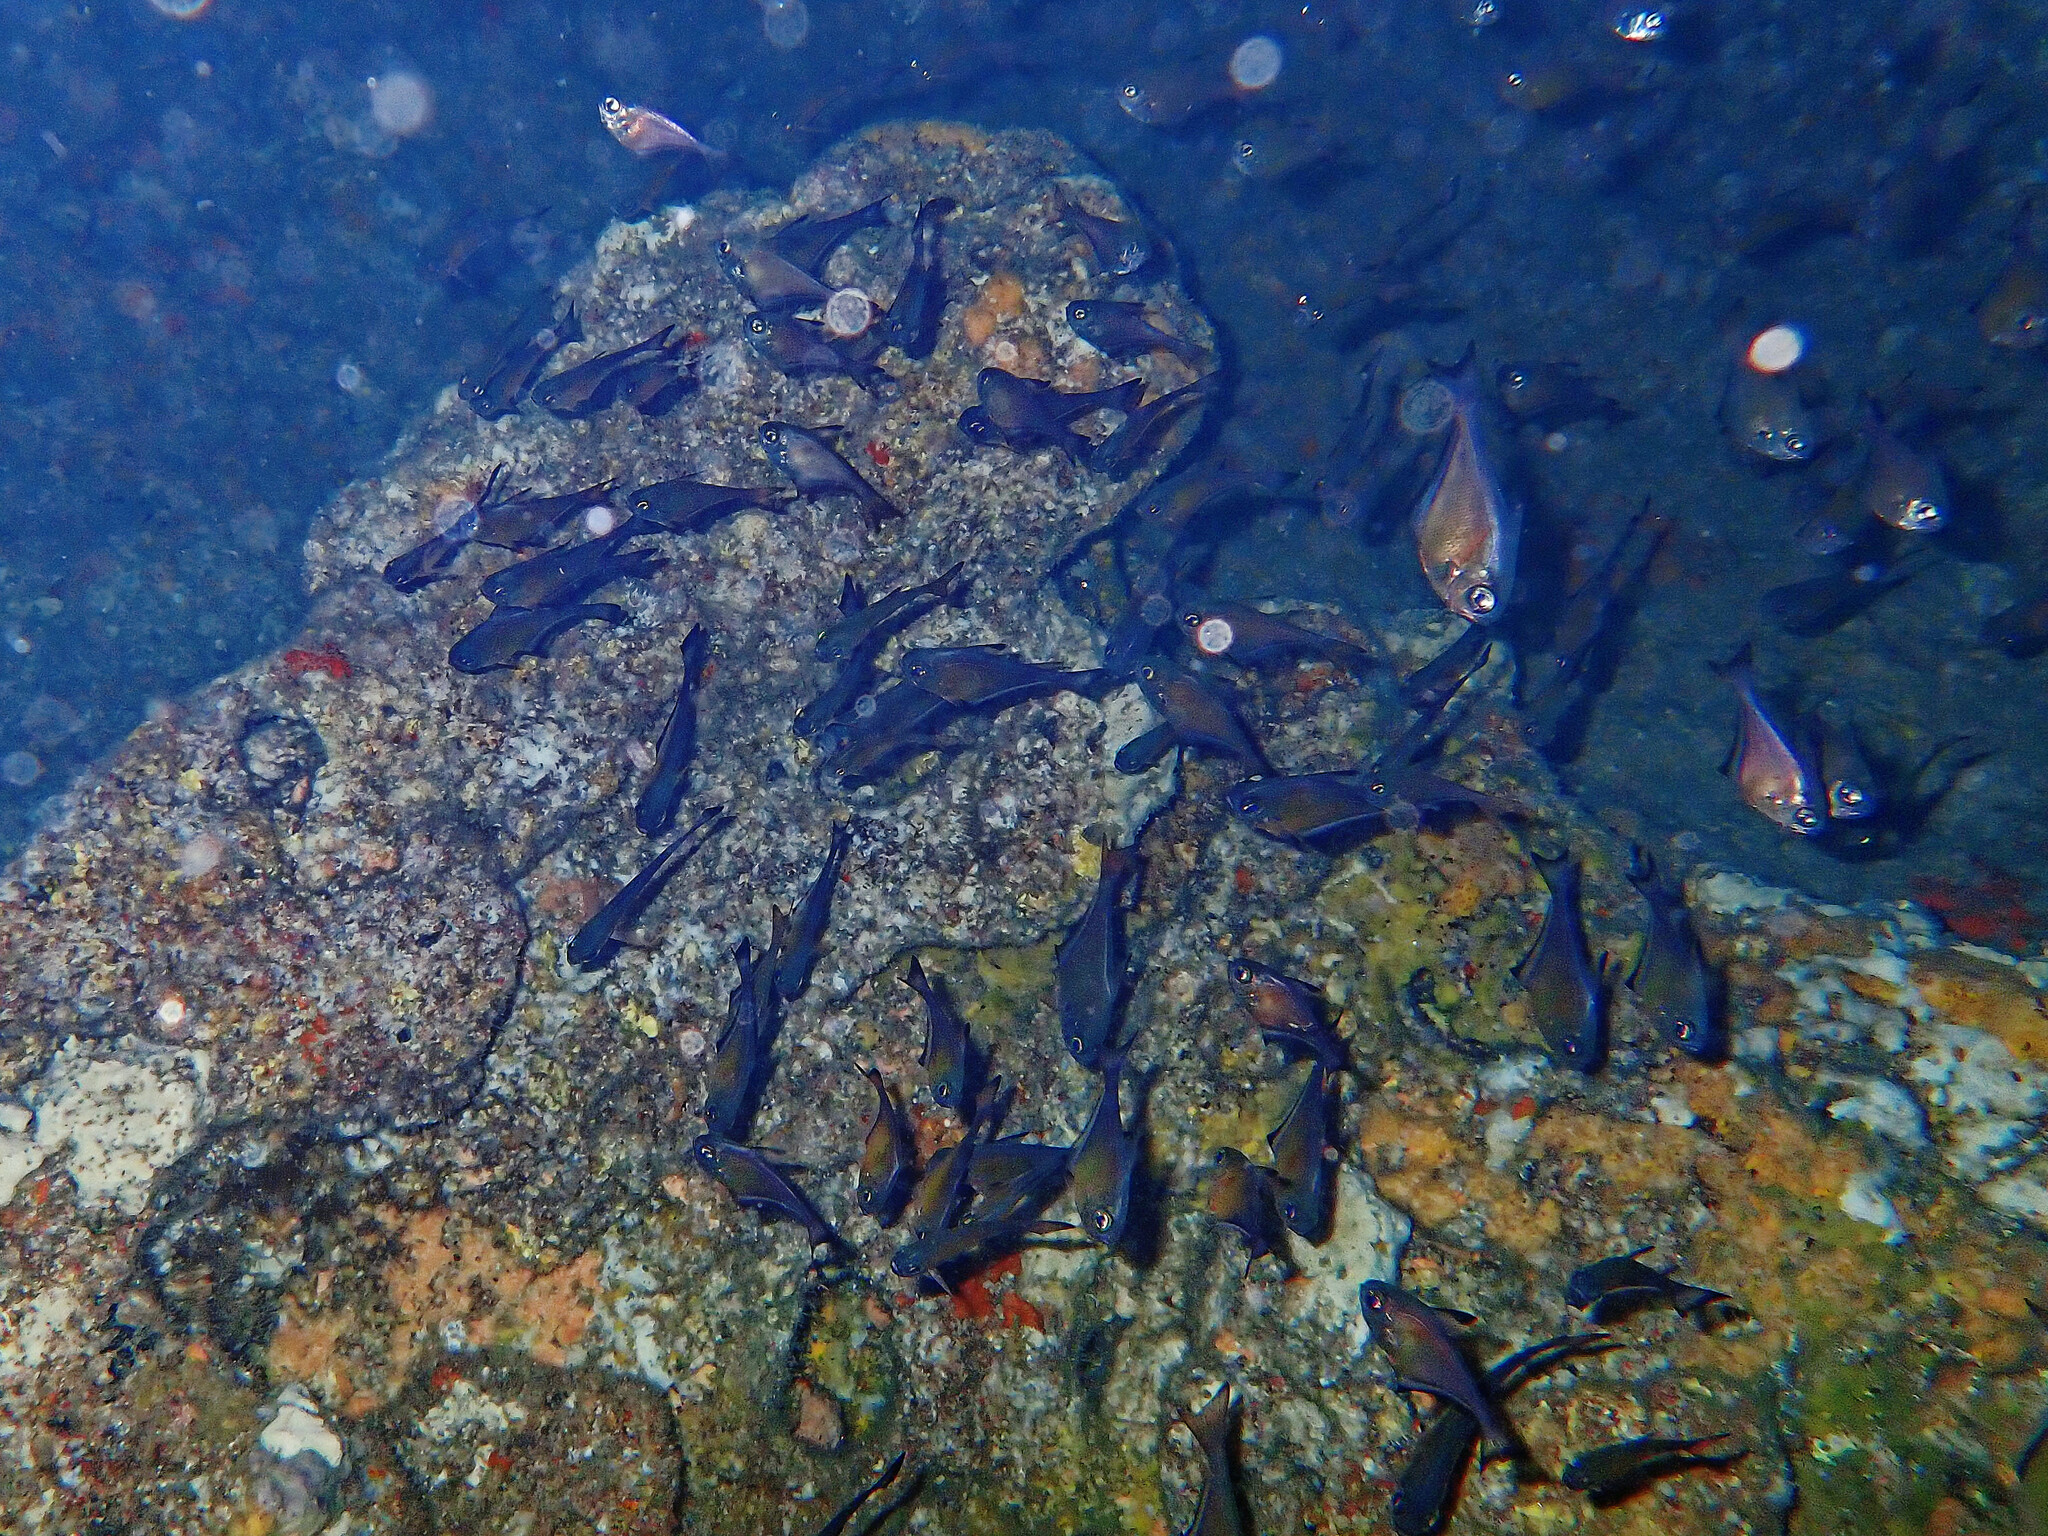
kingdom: Animalia
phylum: Chordata
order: Perciformes
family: Pempheridae
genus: Pempheris
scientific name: Pempheris vanicolensis
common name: Vanikoro sweeper
